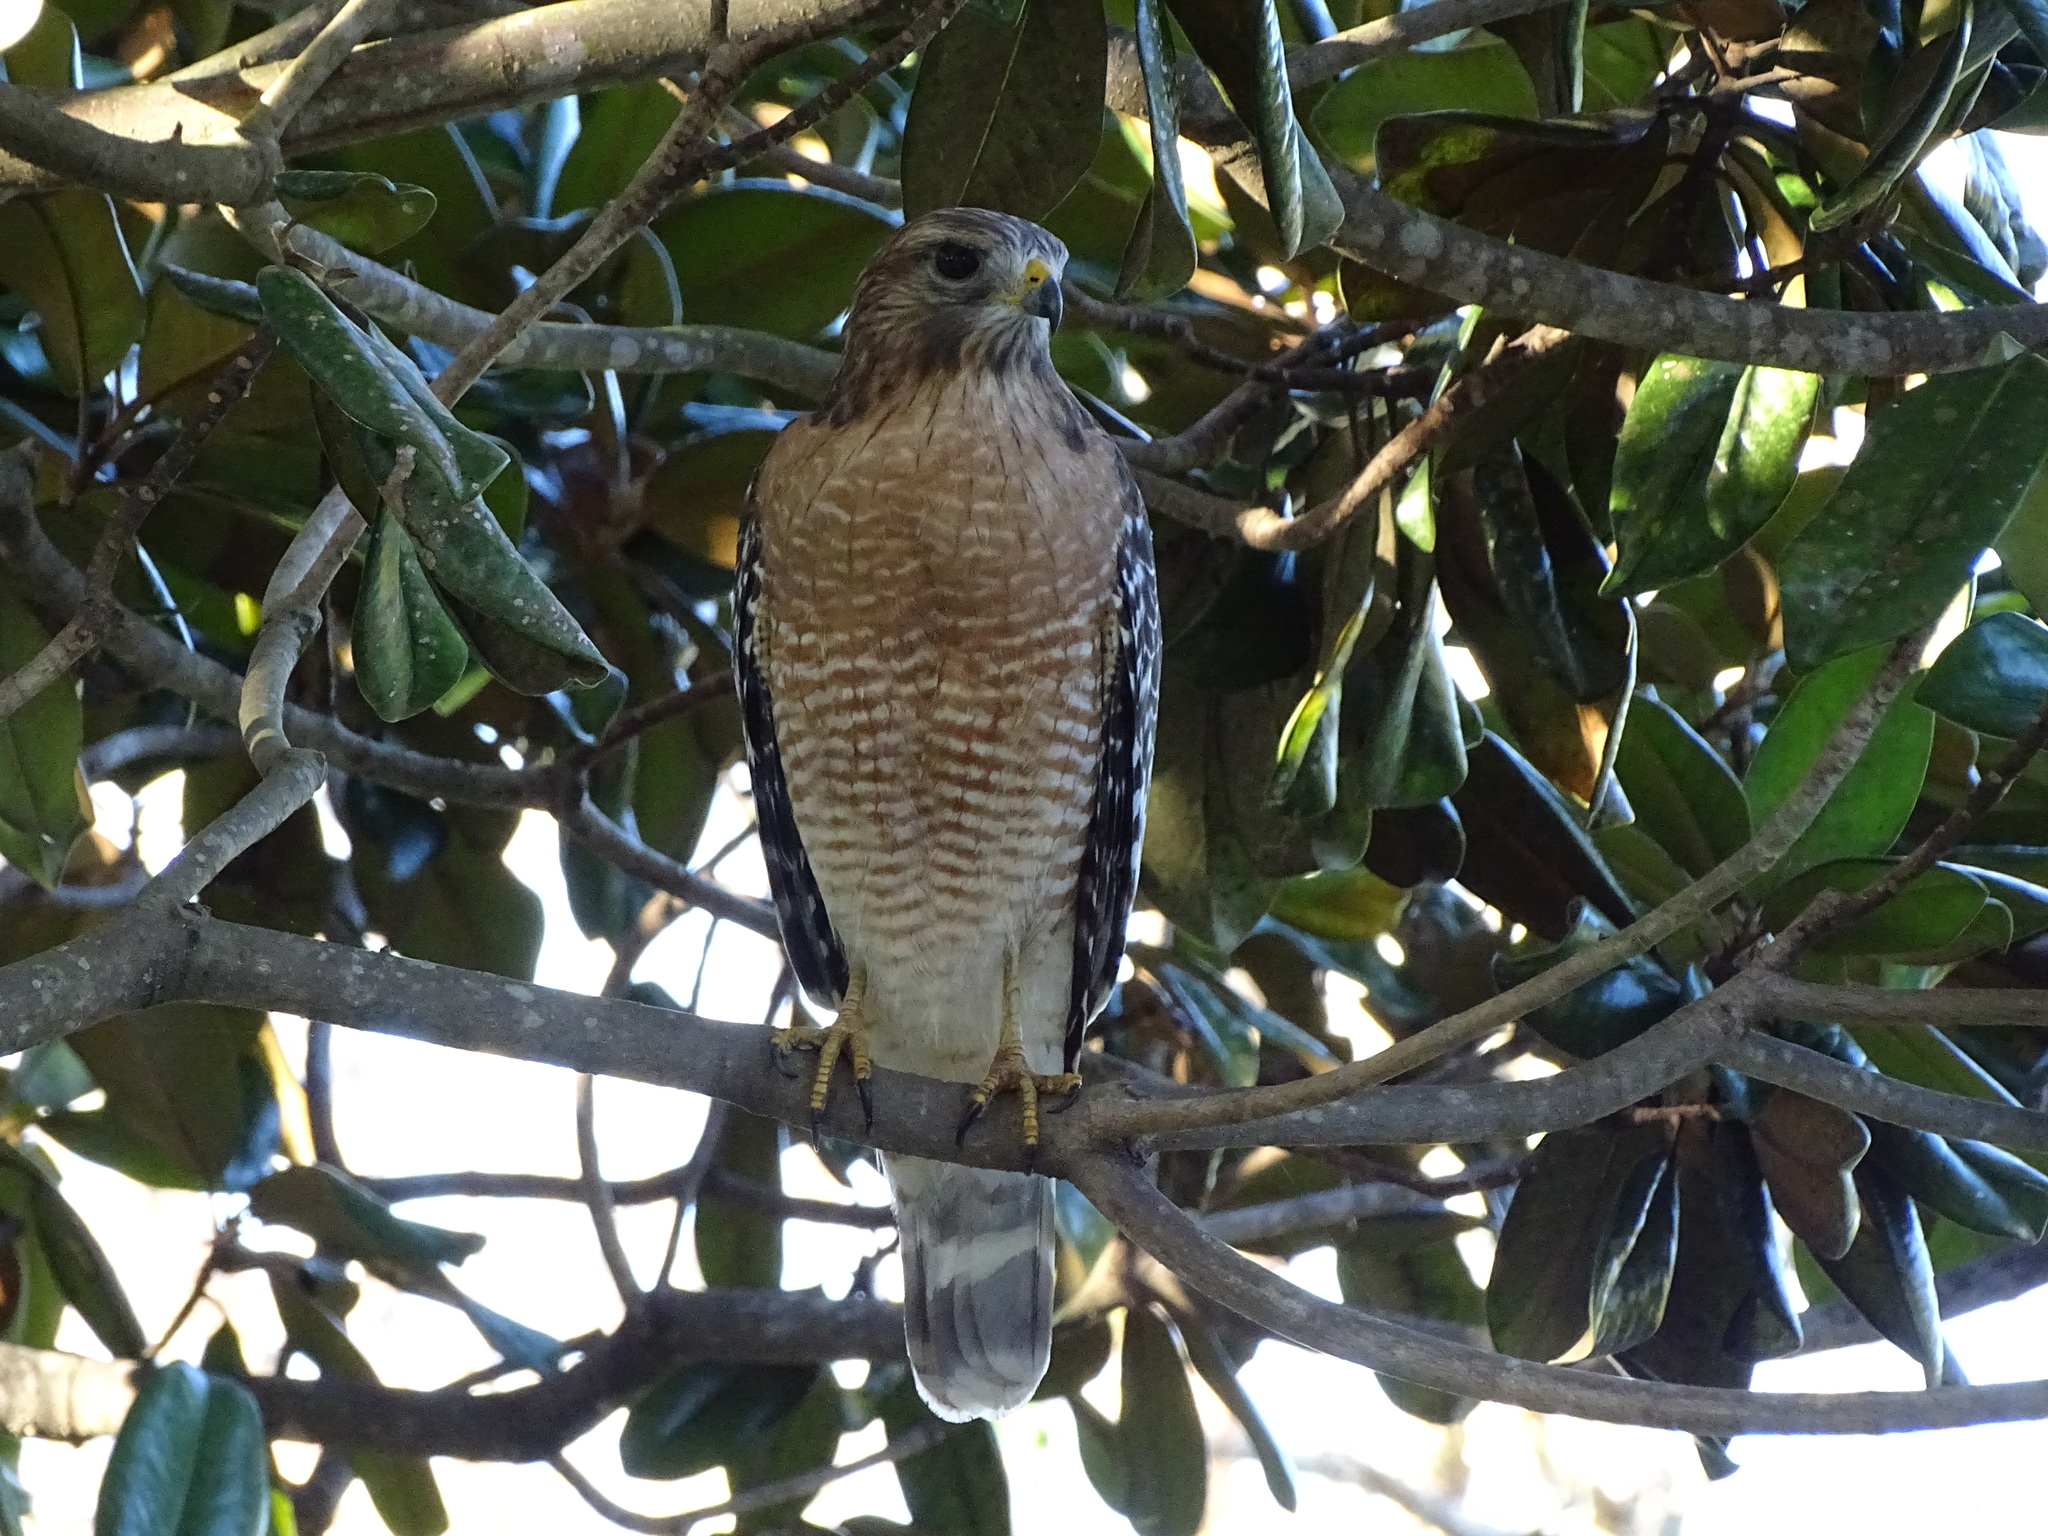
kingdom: Animalia
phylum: Chordata
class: Aves
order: Accipitriformes
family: Accipitridae
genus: Buteo
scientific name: Buteo lineatus
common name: Red-shouldered hawk
